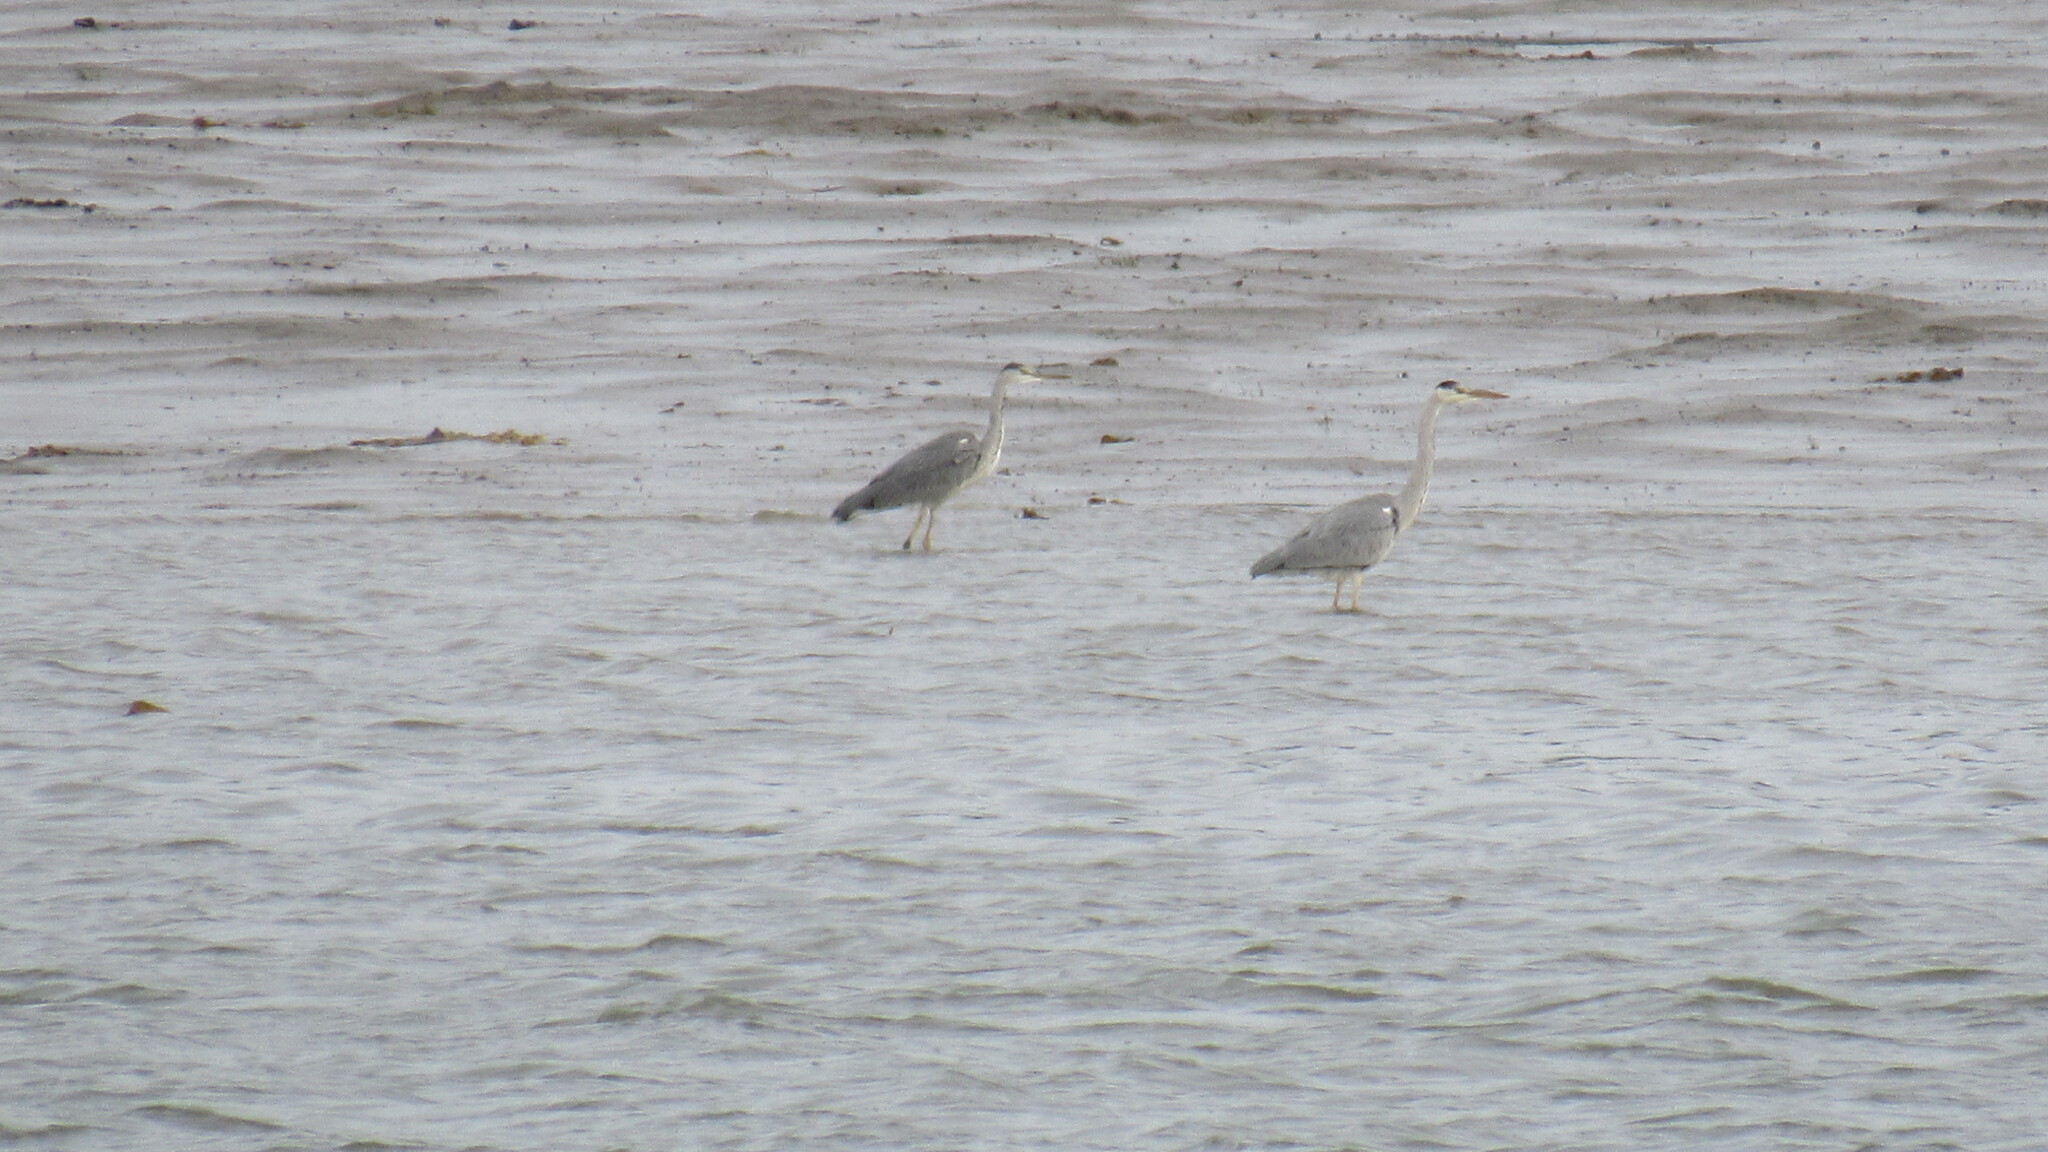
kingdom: Animalia
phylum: Chordata
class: Aves
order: Pelecaniformes
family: Ardeidae
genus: Ardea
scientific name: Ardea cinerea
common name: Grey heron
